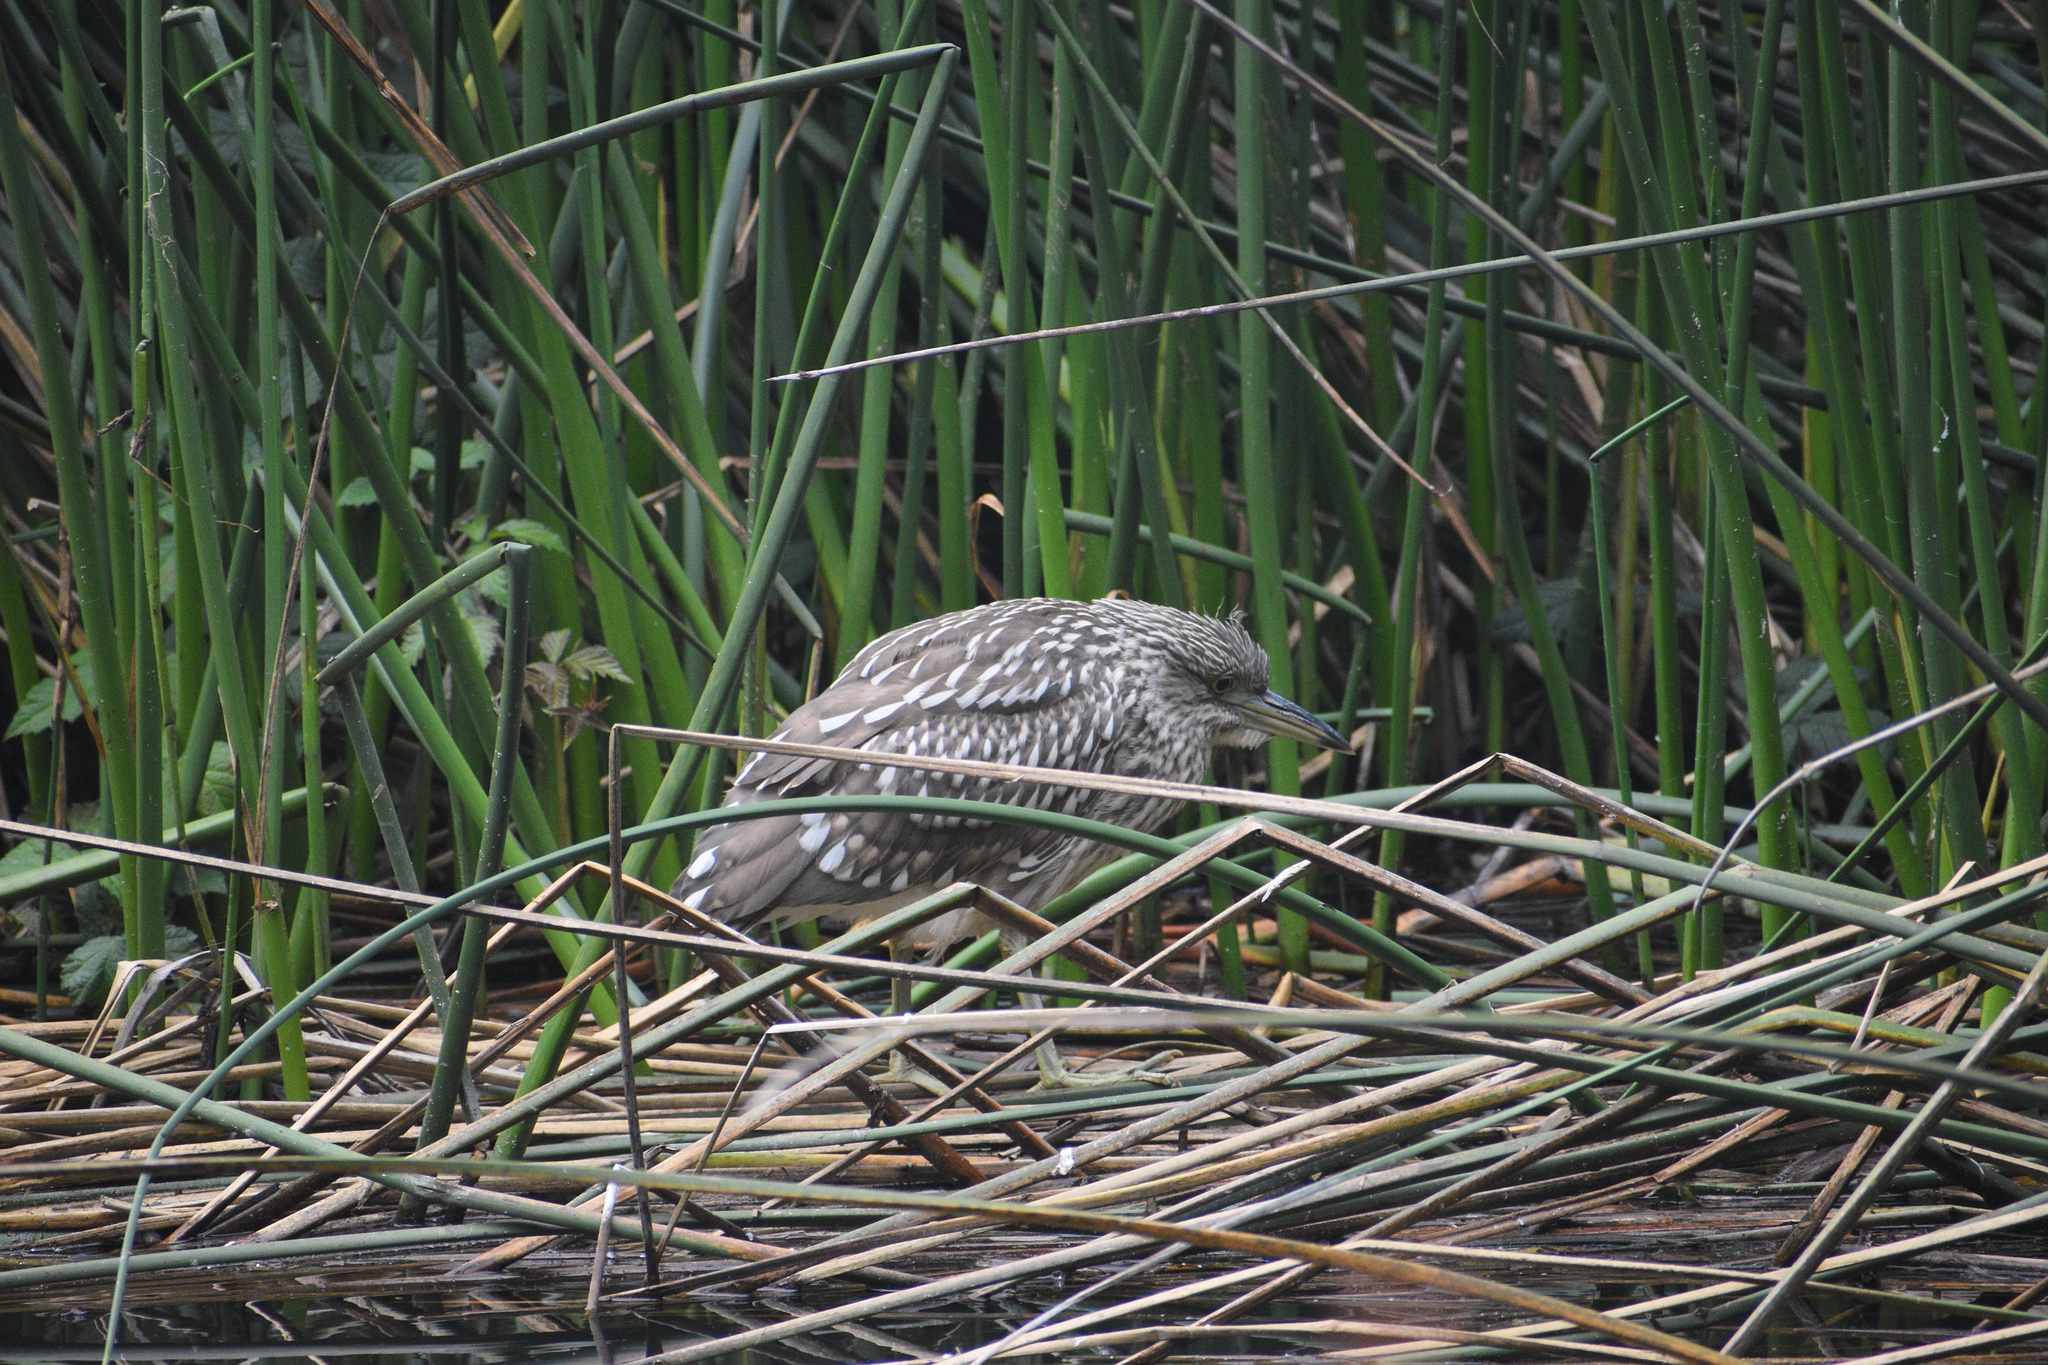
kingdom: Animalia
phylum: Chordata
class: Aves
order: Pelecaniformes
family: Ardeidae
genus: Nycticorax
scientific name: Nycticorax nycticorax
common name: Black-crowned night heron
